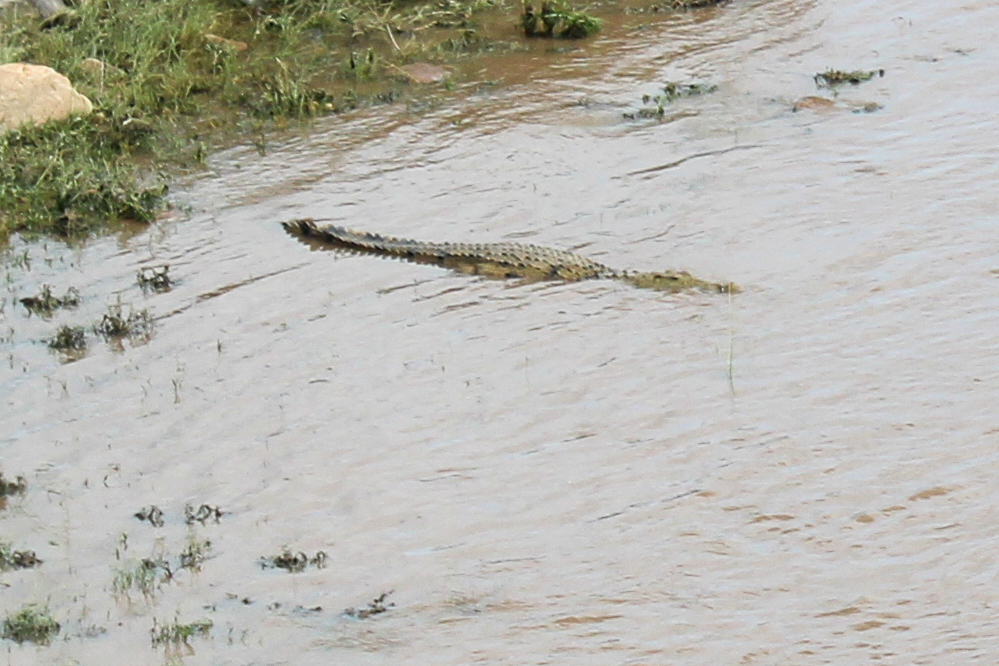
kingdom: Animalia
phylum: Chordata
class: Crocodylia
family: Crocodylidae
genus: Crocodylus
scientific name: Crocodylus niloticus
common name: Nile crocodile
